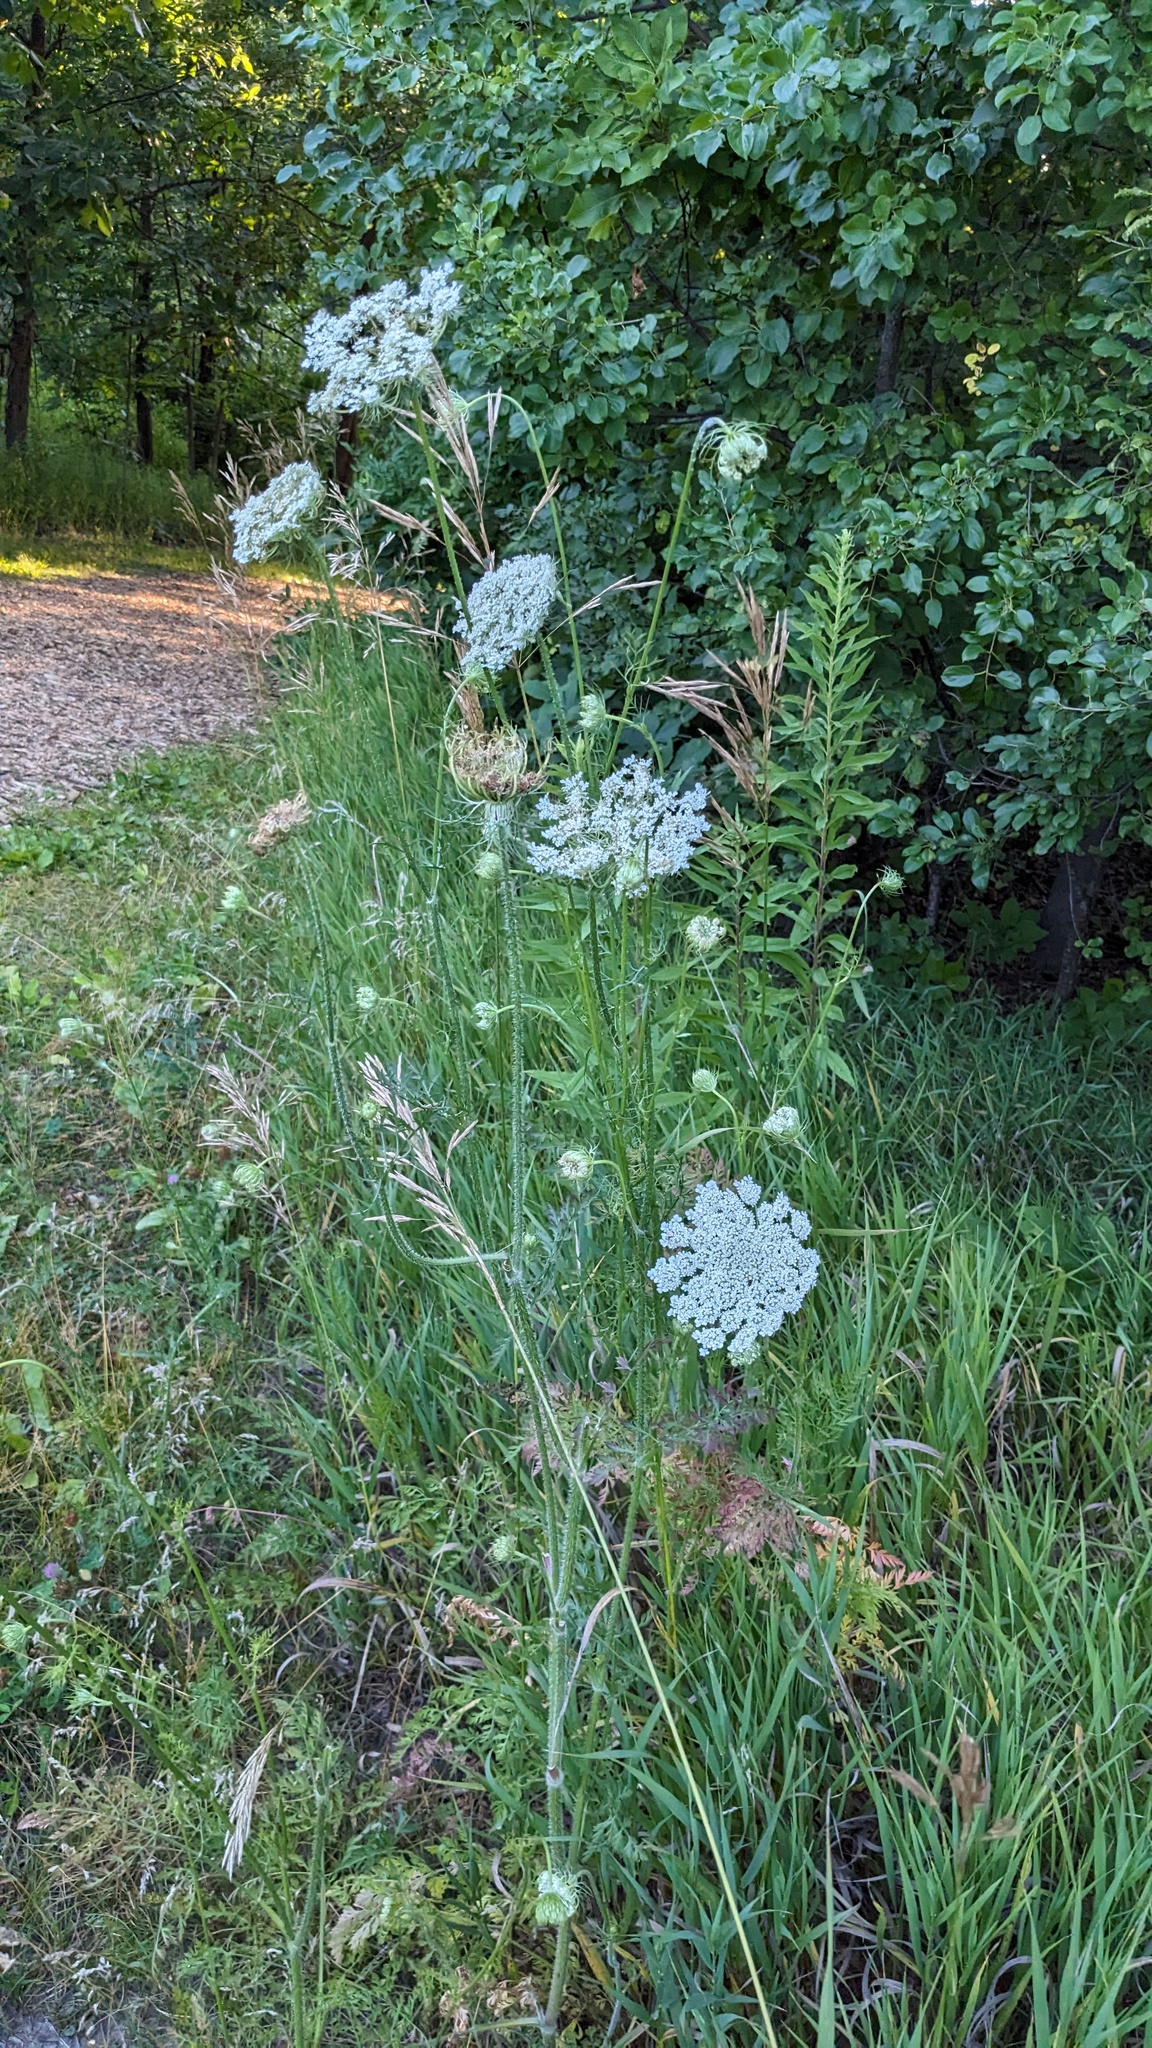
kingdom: Plantae
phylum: Tracheophyta
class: Magnoliopsida
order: Apiales
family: Apiaceae
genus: Daucus
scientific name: Daucus carota
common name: Wild carrot
